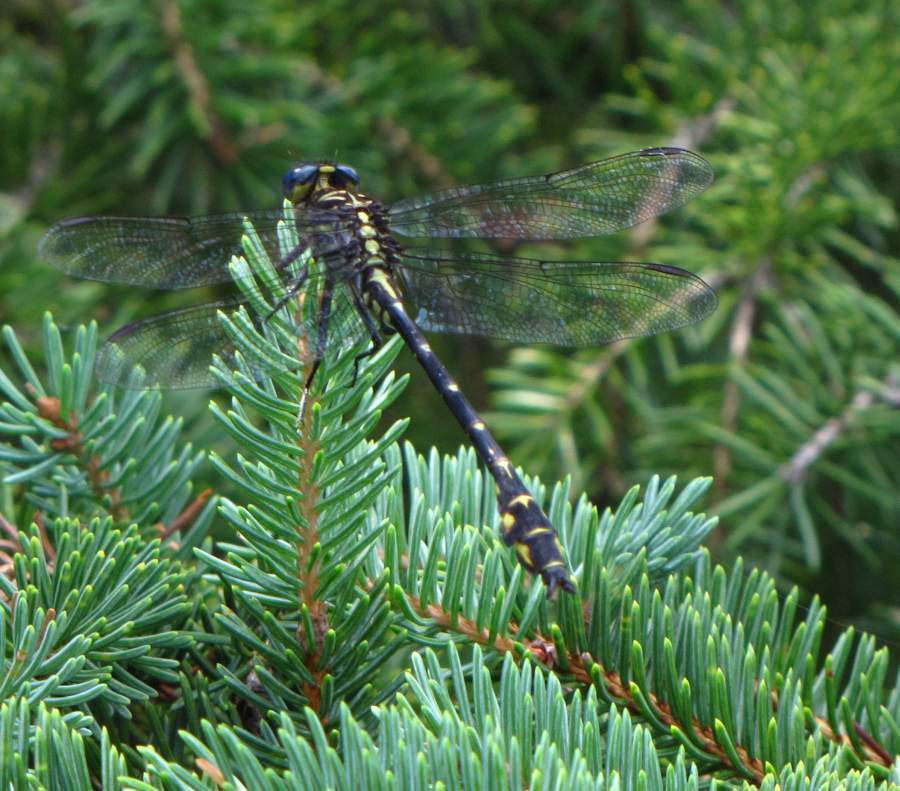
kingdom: Animalia
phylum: Arthropoda
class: Insecta
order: Odonata
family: Gomphidae
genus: Stylurus
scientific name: Stylurus notatus
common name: Elusive clubtail
